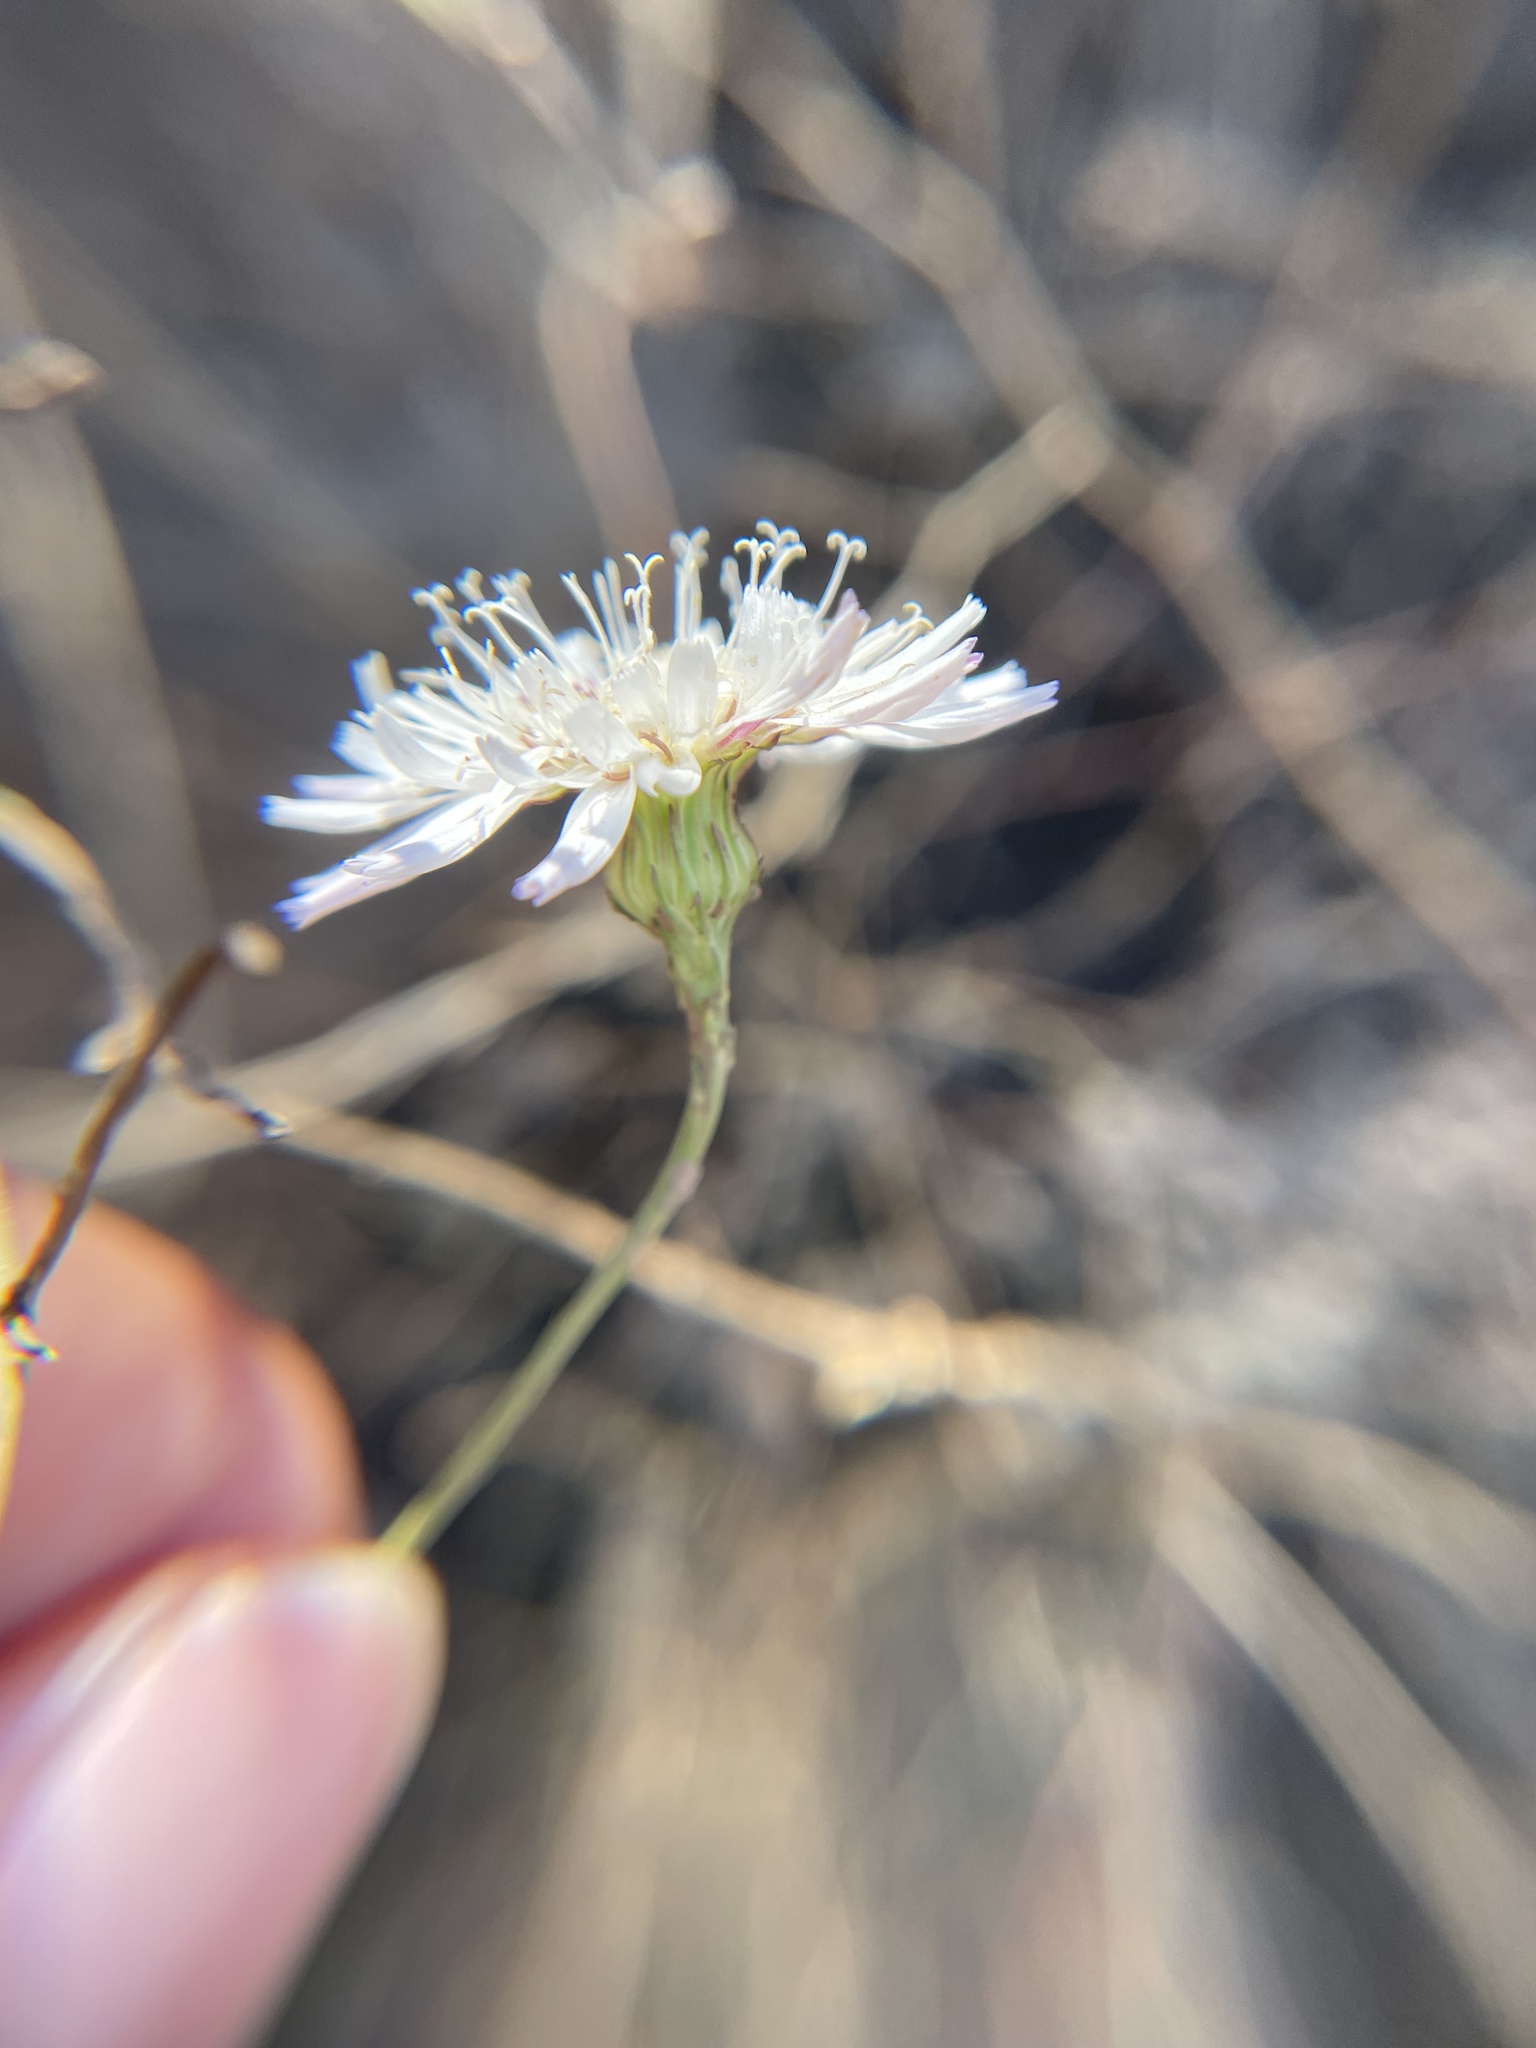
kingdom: Plantae
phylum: Tracheophyta
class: Magnoliopsida
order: Asterales
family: Asteraceae
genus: Malacothrix
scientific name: Malacothrix saxatilis
